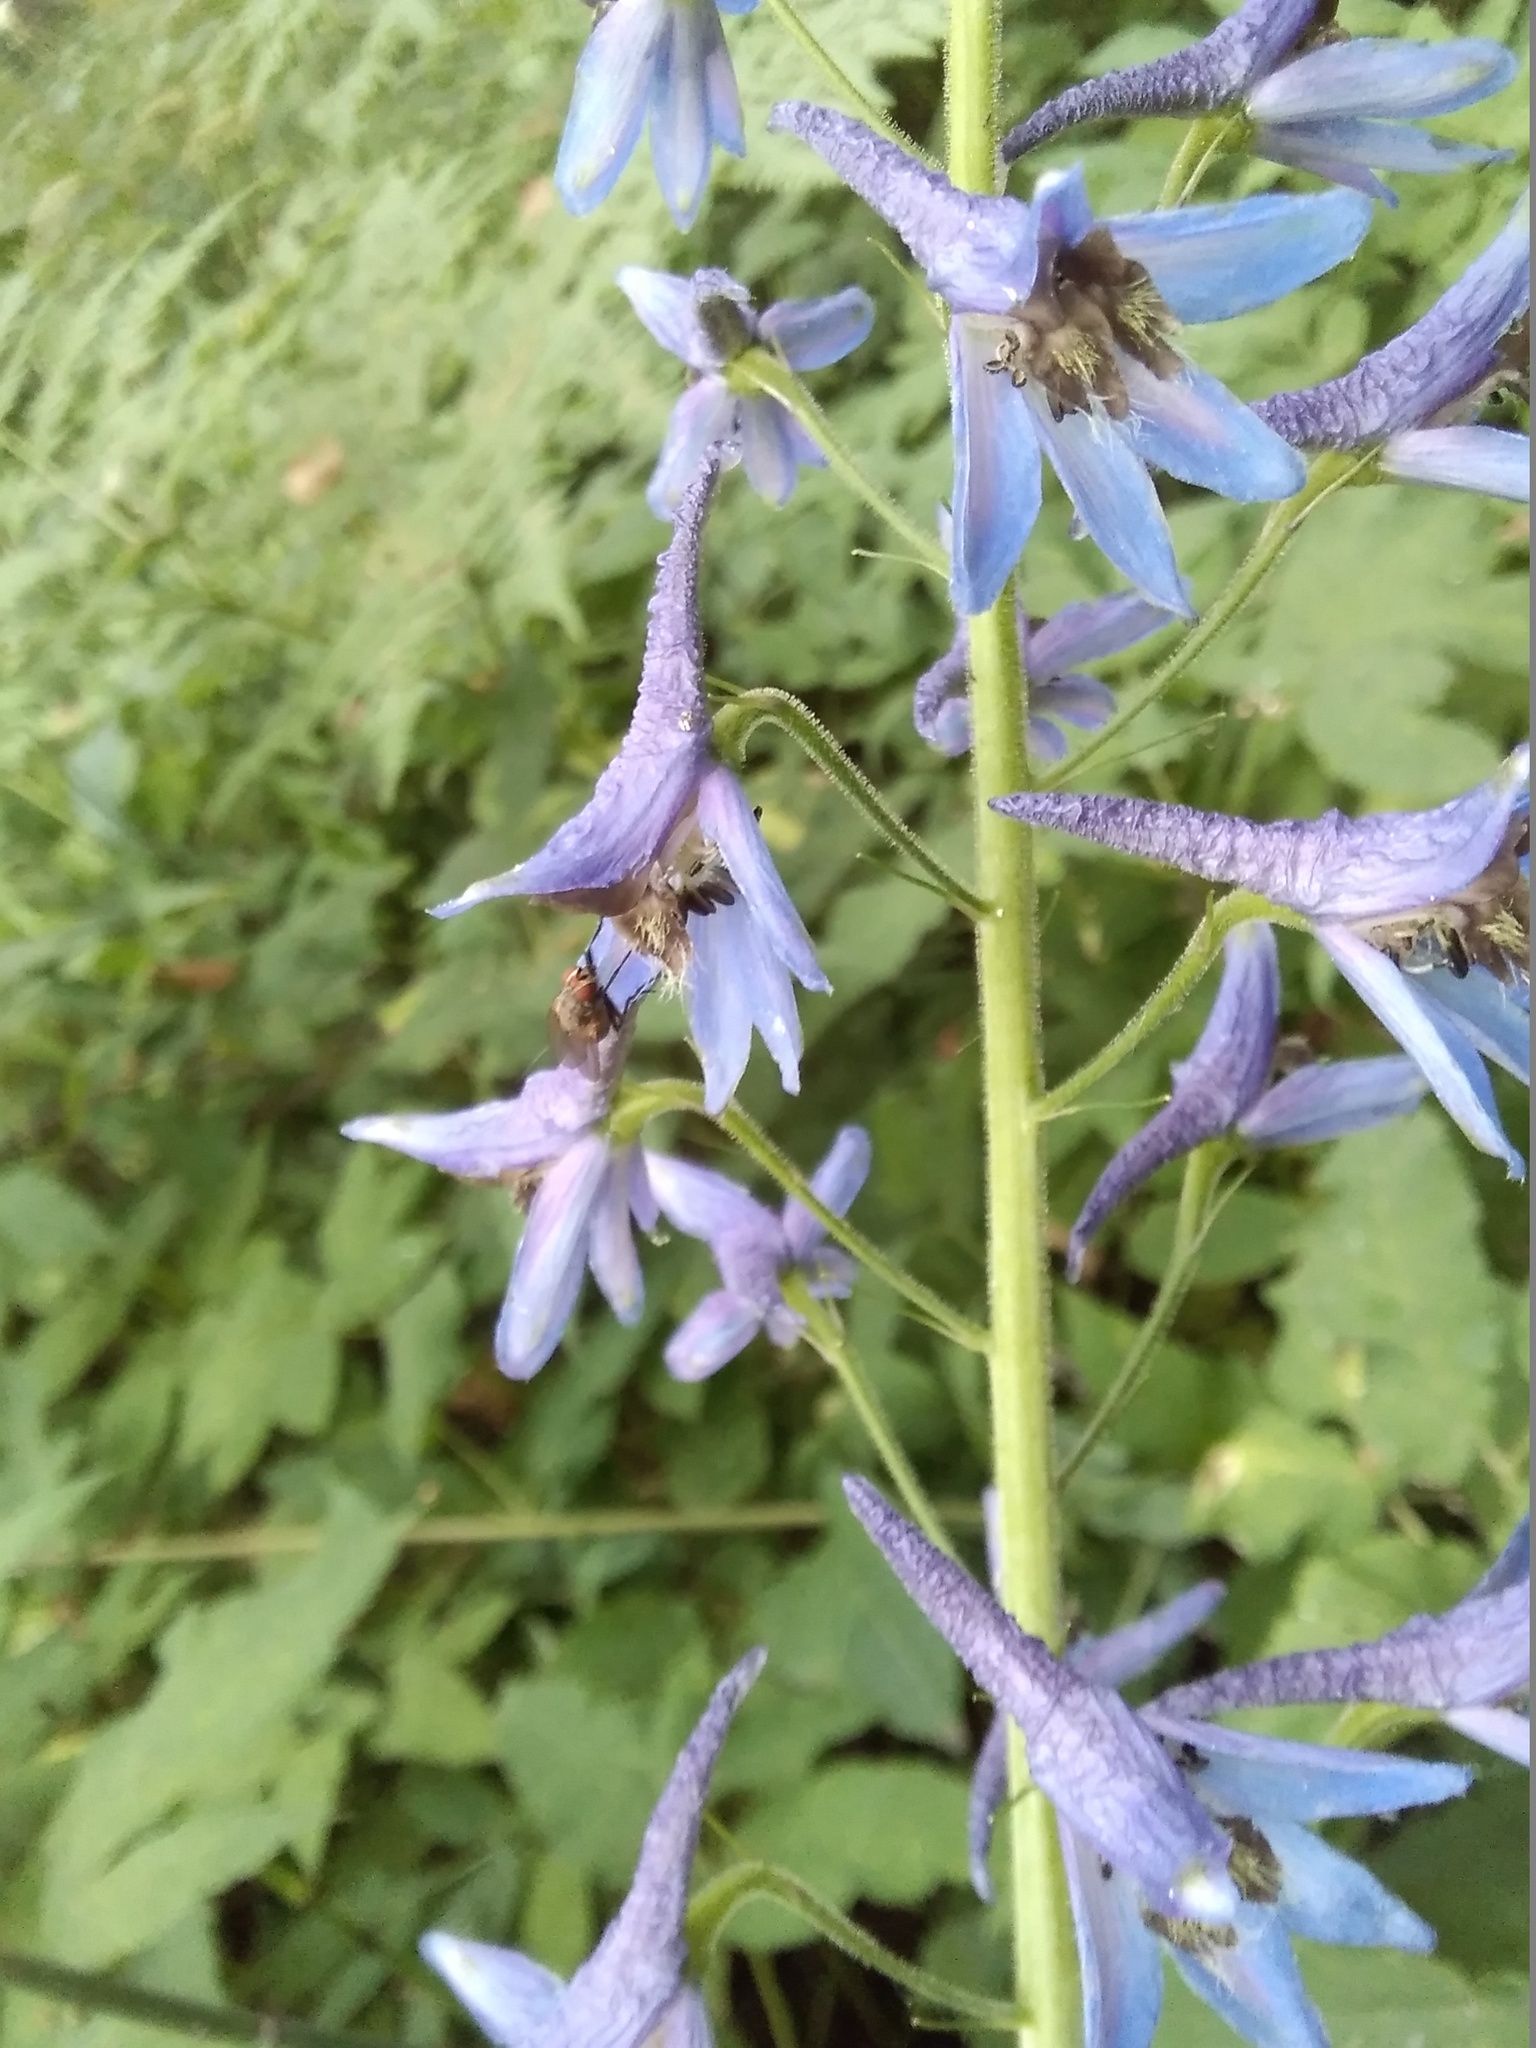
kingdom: Plantae
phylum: Tracheophyta
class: Magnoliopsida
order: Ranunculales
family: Ranunculaceae
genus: Delphinium
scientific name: Delphinium elatum
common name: Candle larkspur
